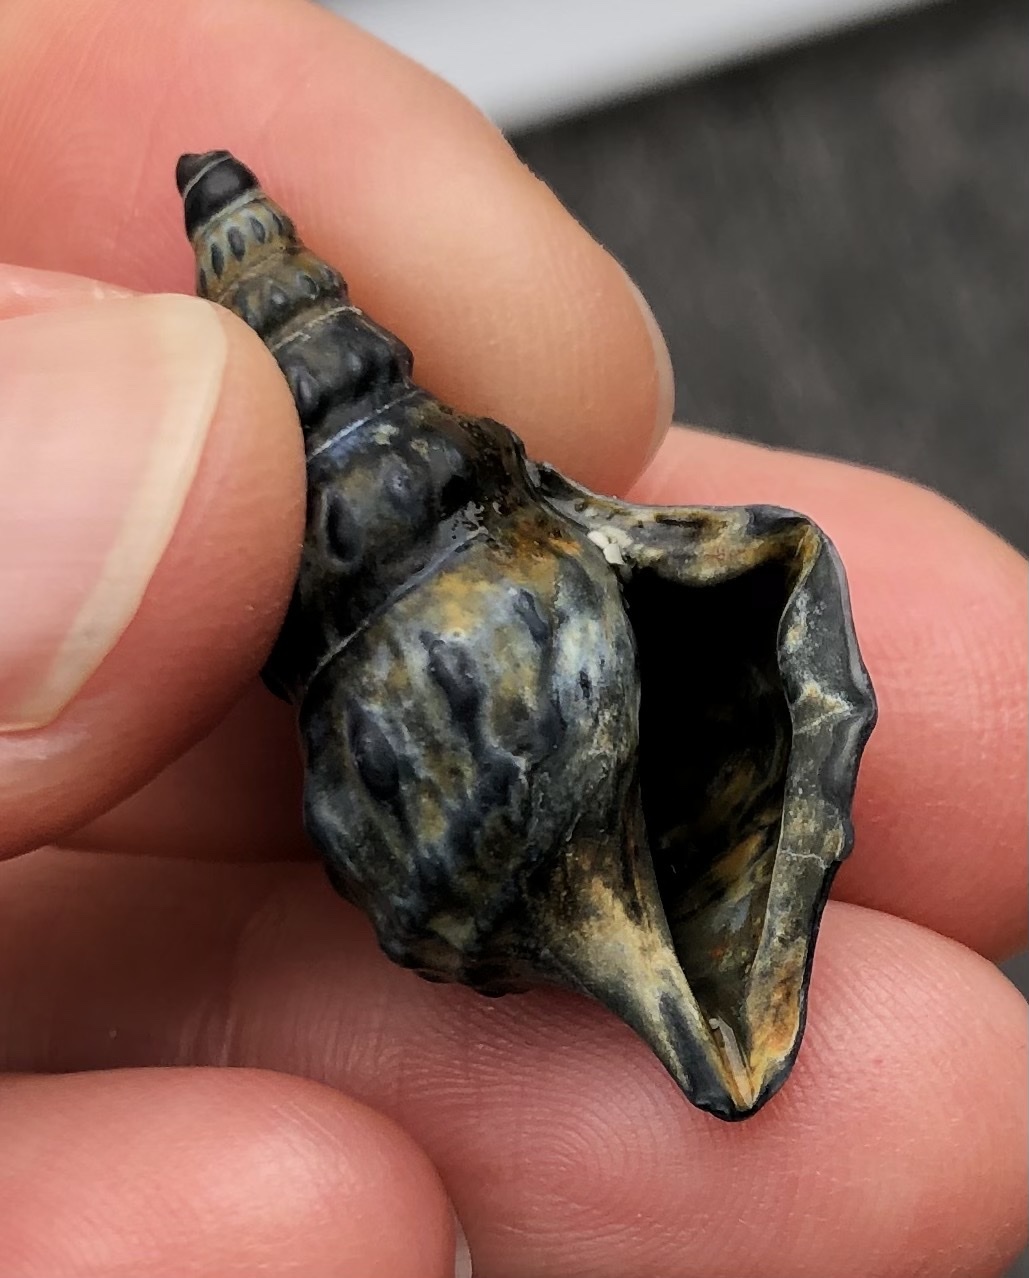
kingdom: Animalia
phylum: Mollusca
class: Gastropoda
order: Littorinimorpha
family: Aporrhaidae
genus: Aporrhais
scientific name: Aporrhais pespelecani
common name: Common pelican’s foot
